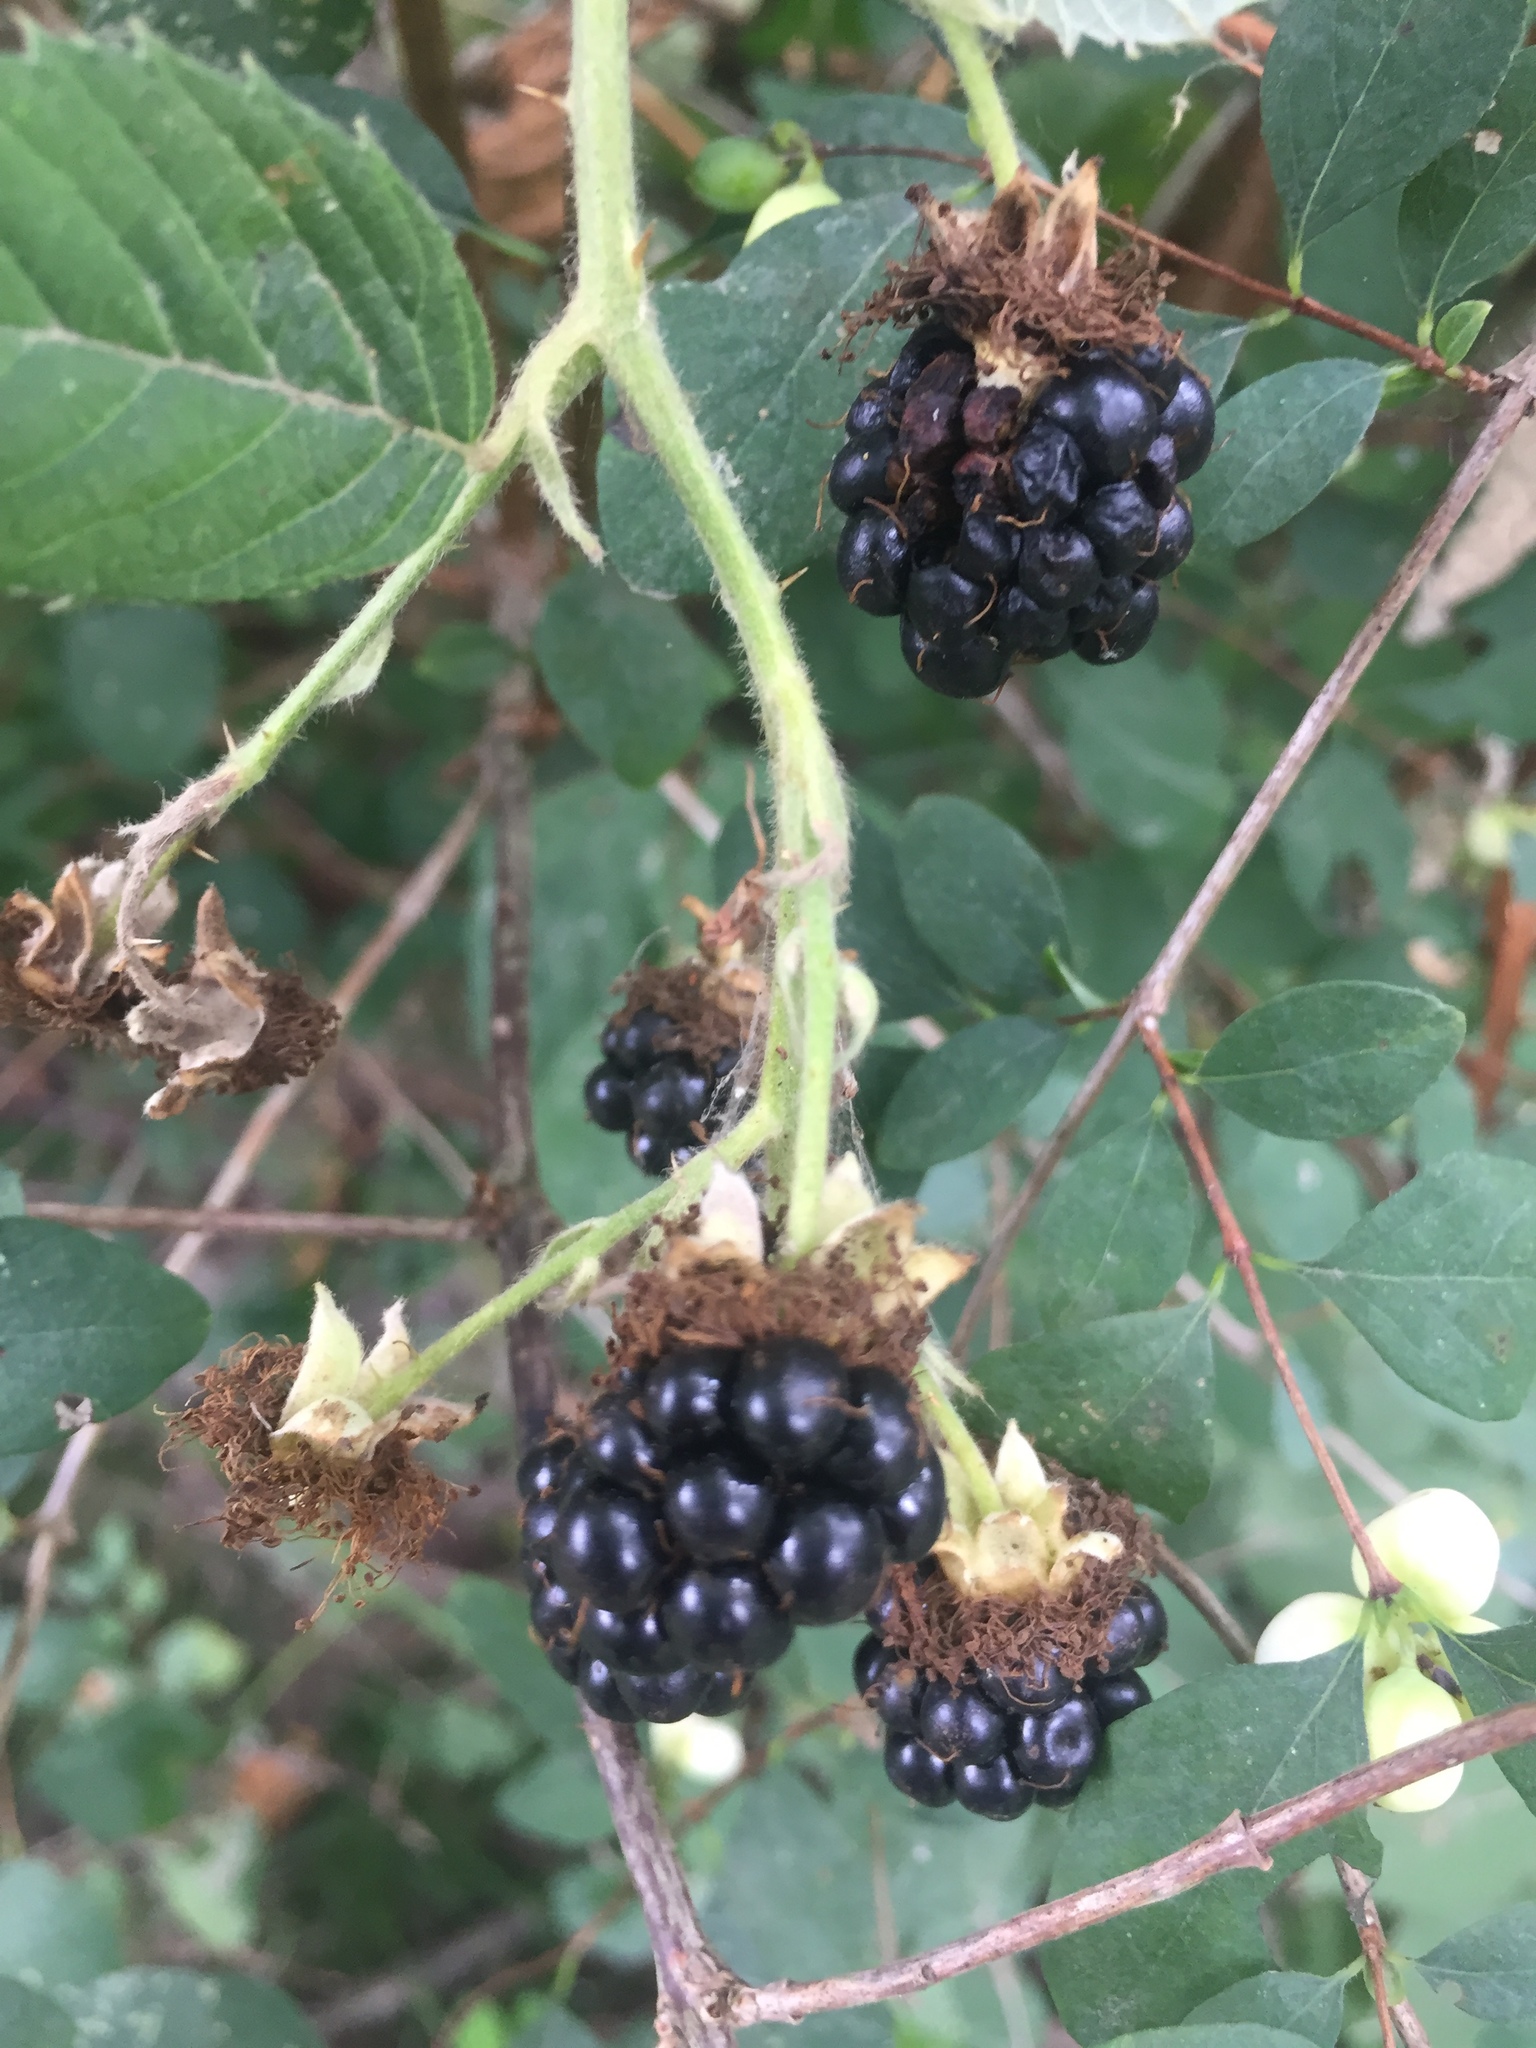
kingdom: Plantae
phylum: Tracheophyta
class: Magnoliopsida
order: Rosales
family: Rosaceae
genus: Rubus
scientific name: Rubus armeniacus
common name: Himalayan blackberry
